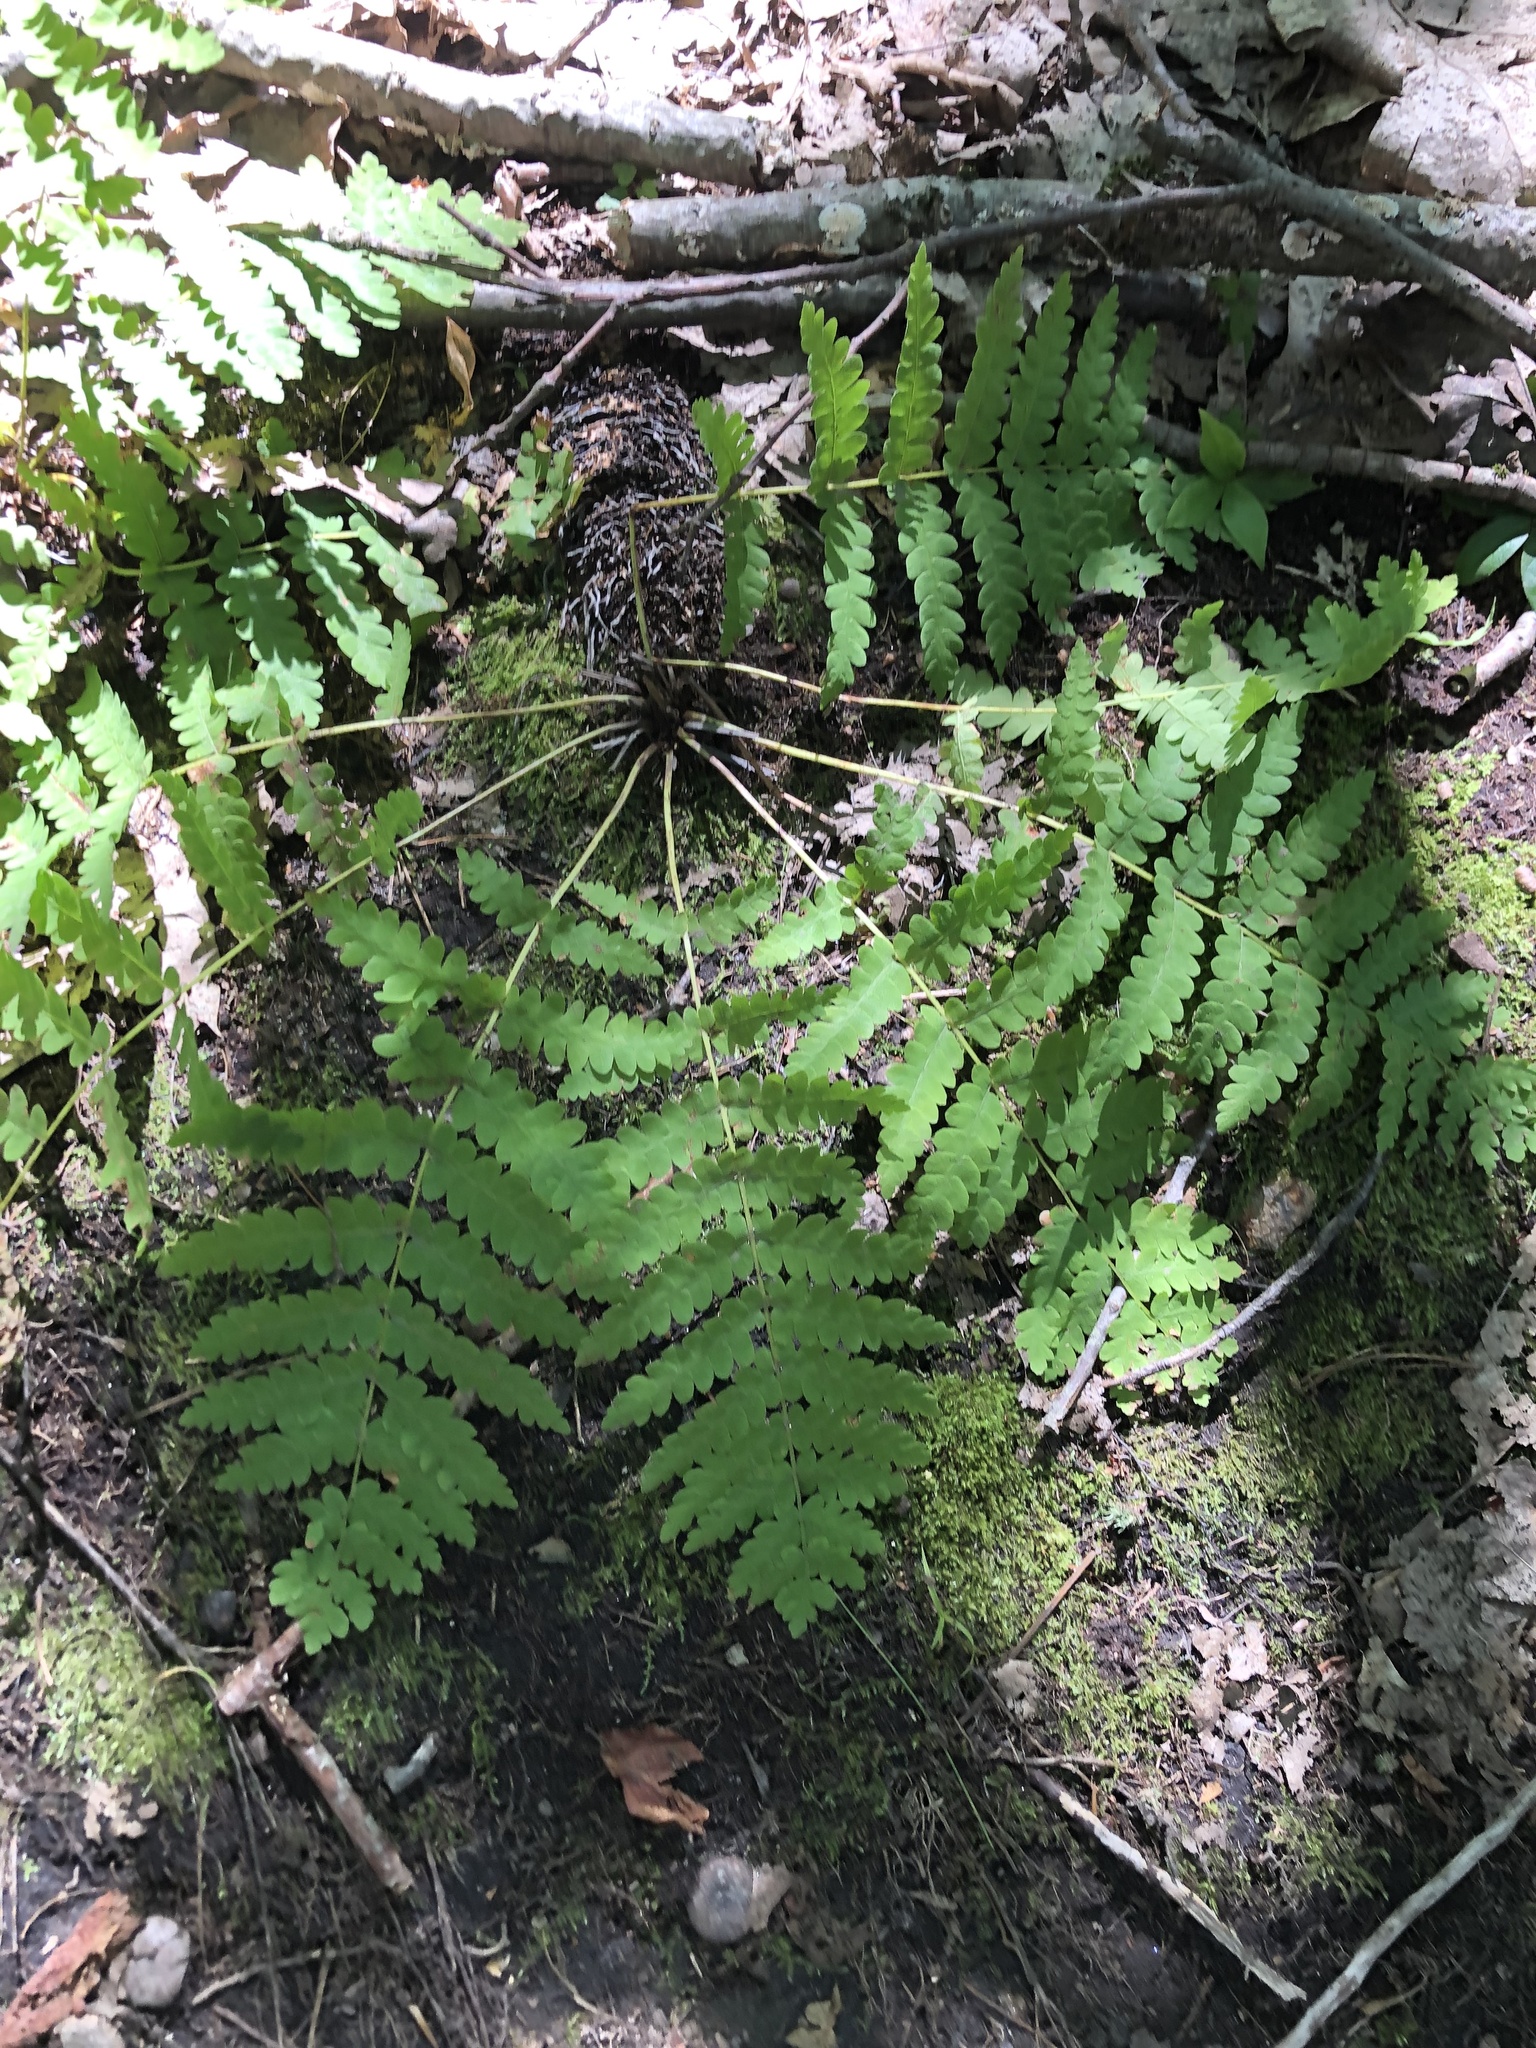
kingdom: Plantae
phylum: Tracheophyta
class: Polypodiopsida
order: Osmundales
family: Osmundaceae
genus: Claytosmunda
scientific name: Claytosmunda claytoniana
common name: Clayton's fern
